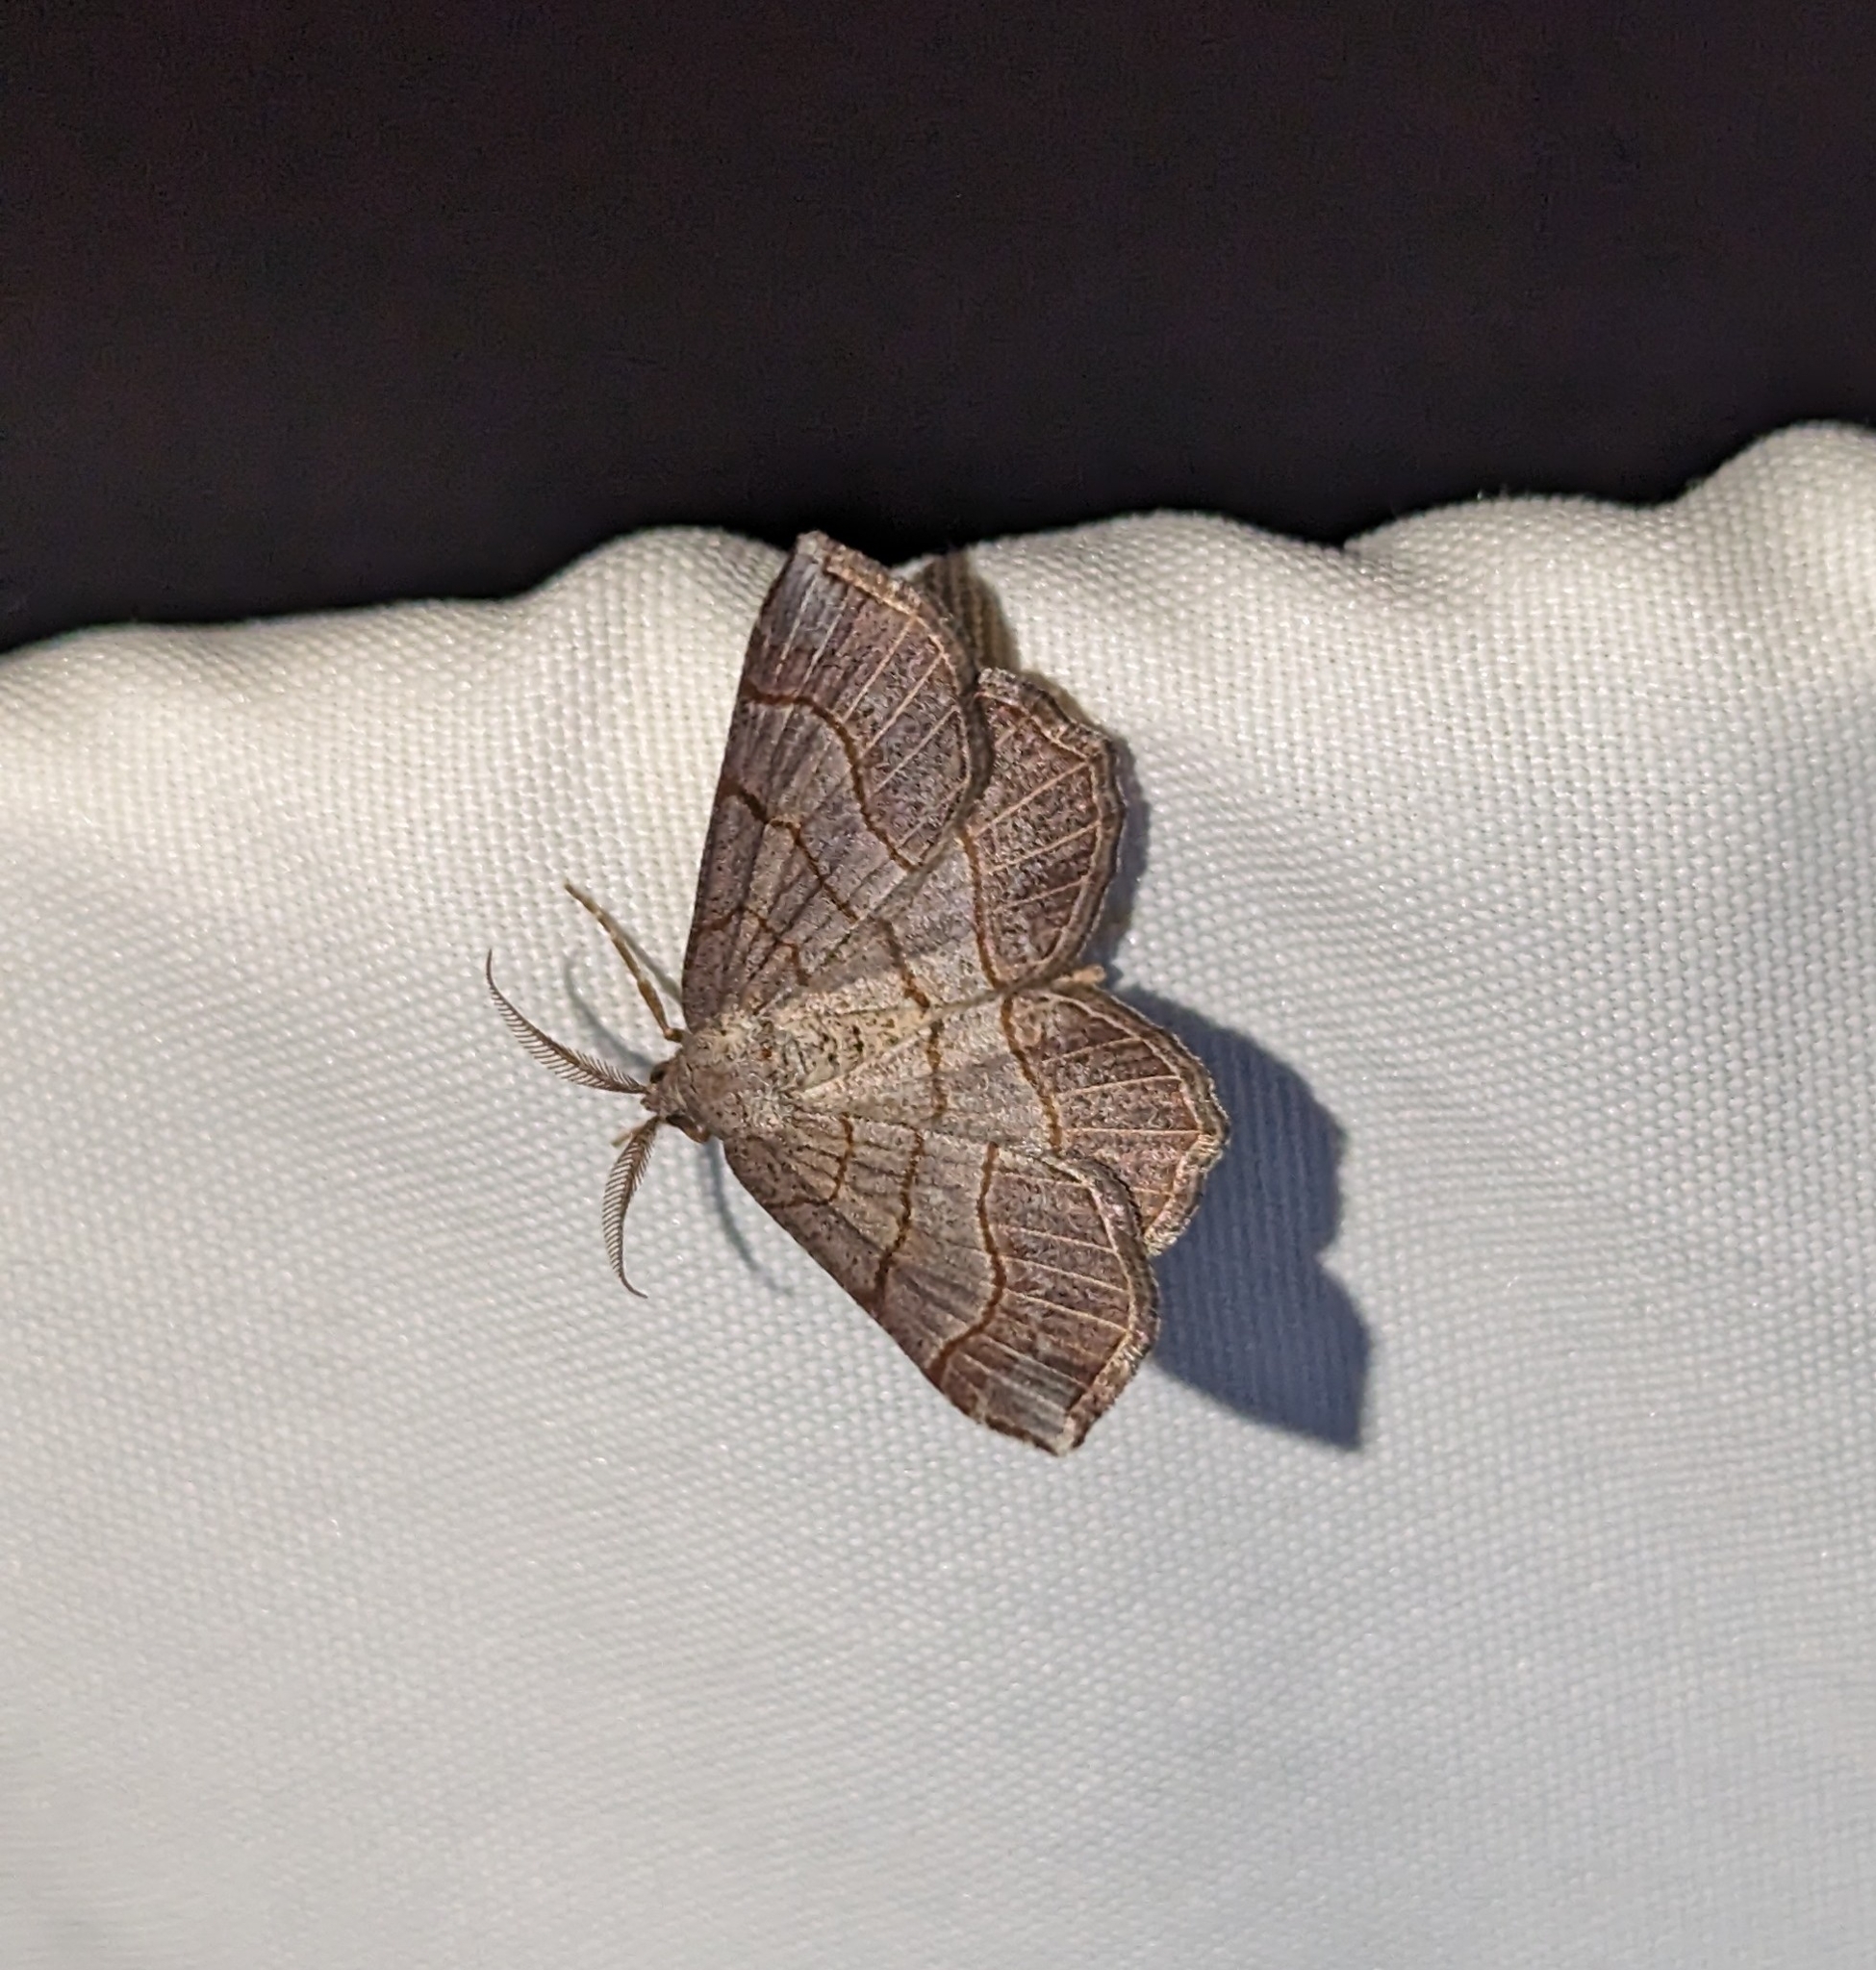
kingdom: Animalia
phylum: Arthropoda
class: Insecta
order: Lepidoptera
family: Geometridae
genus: Eumacaria
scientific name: Eumacaria madopata
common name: Brown-bordered geometer
